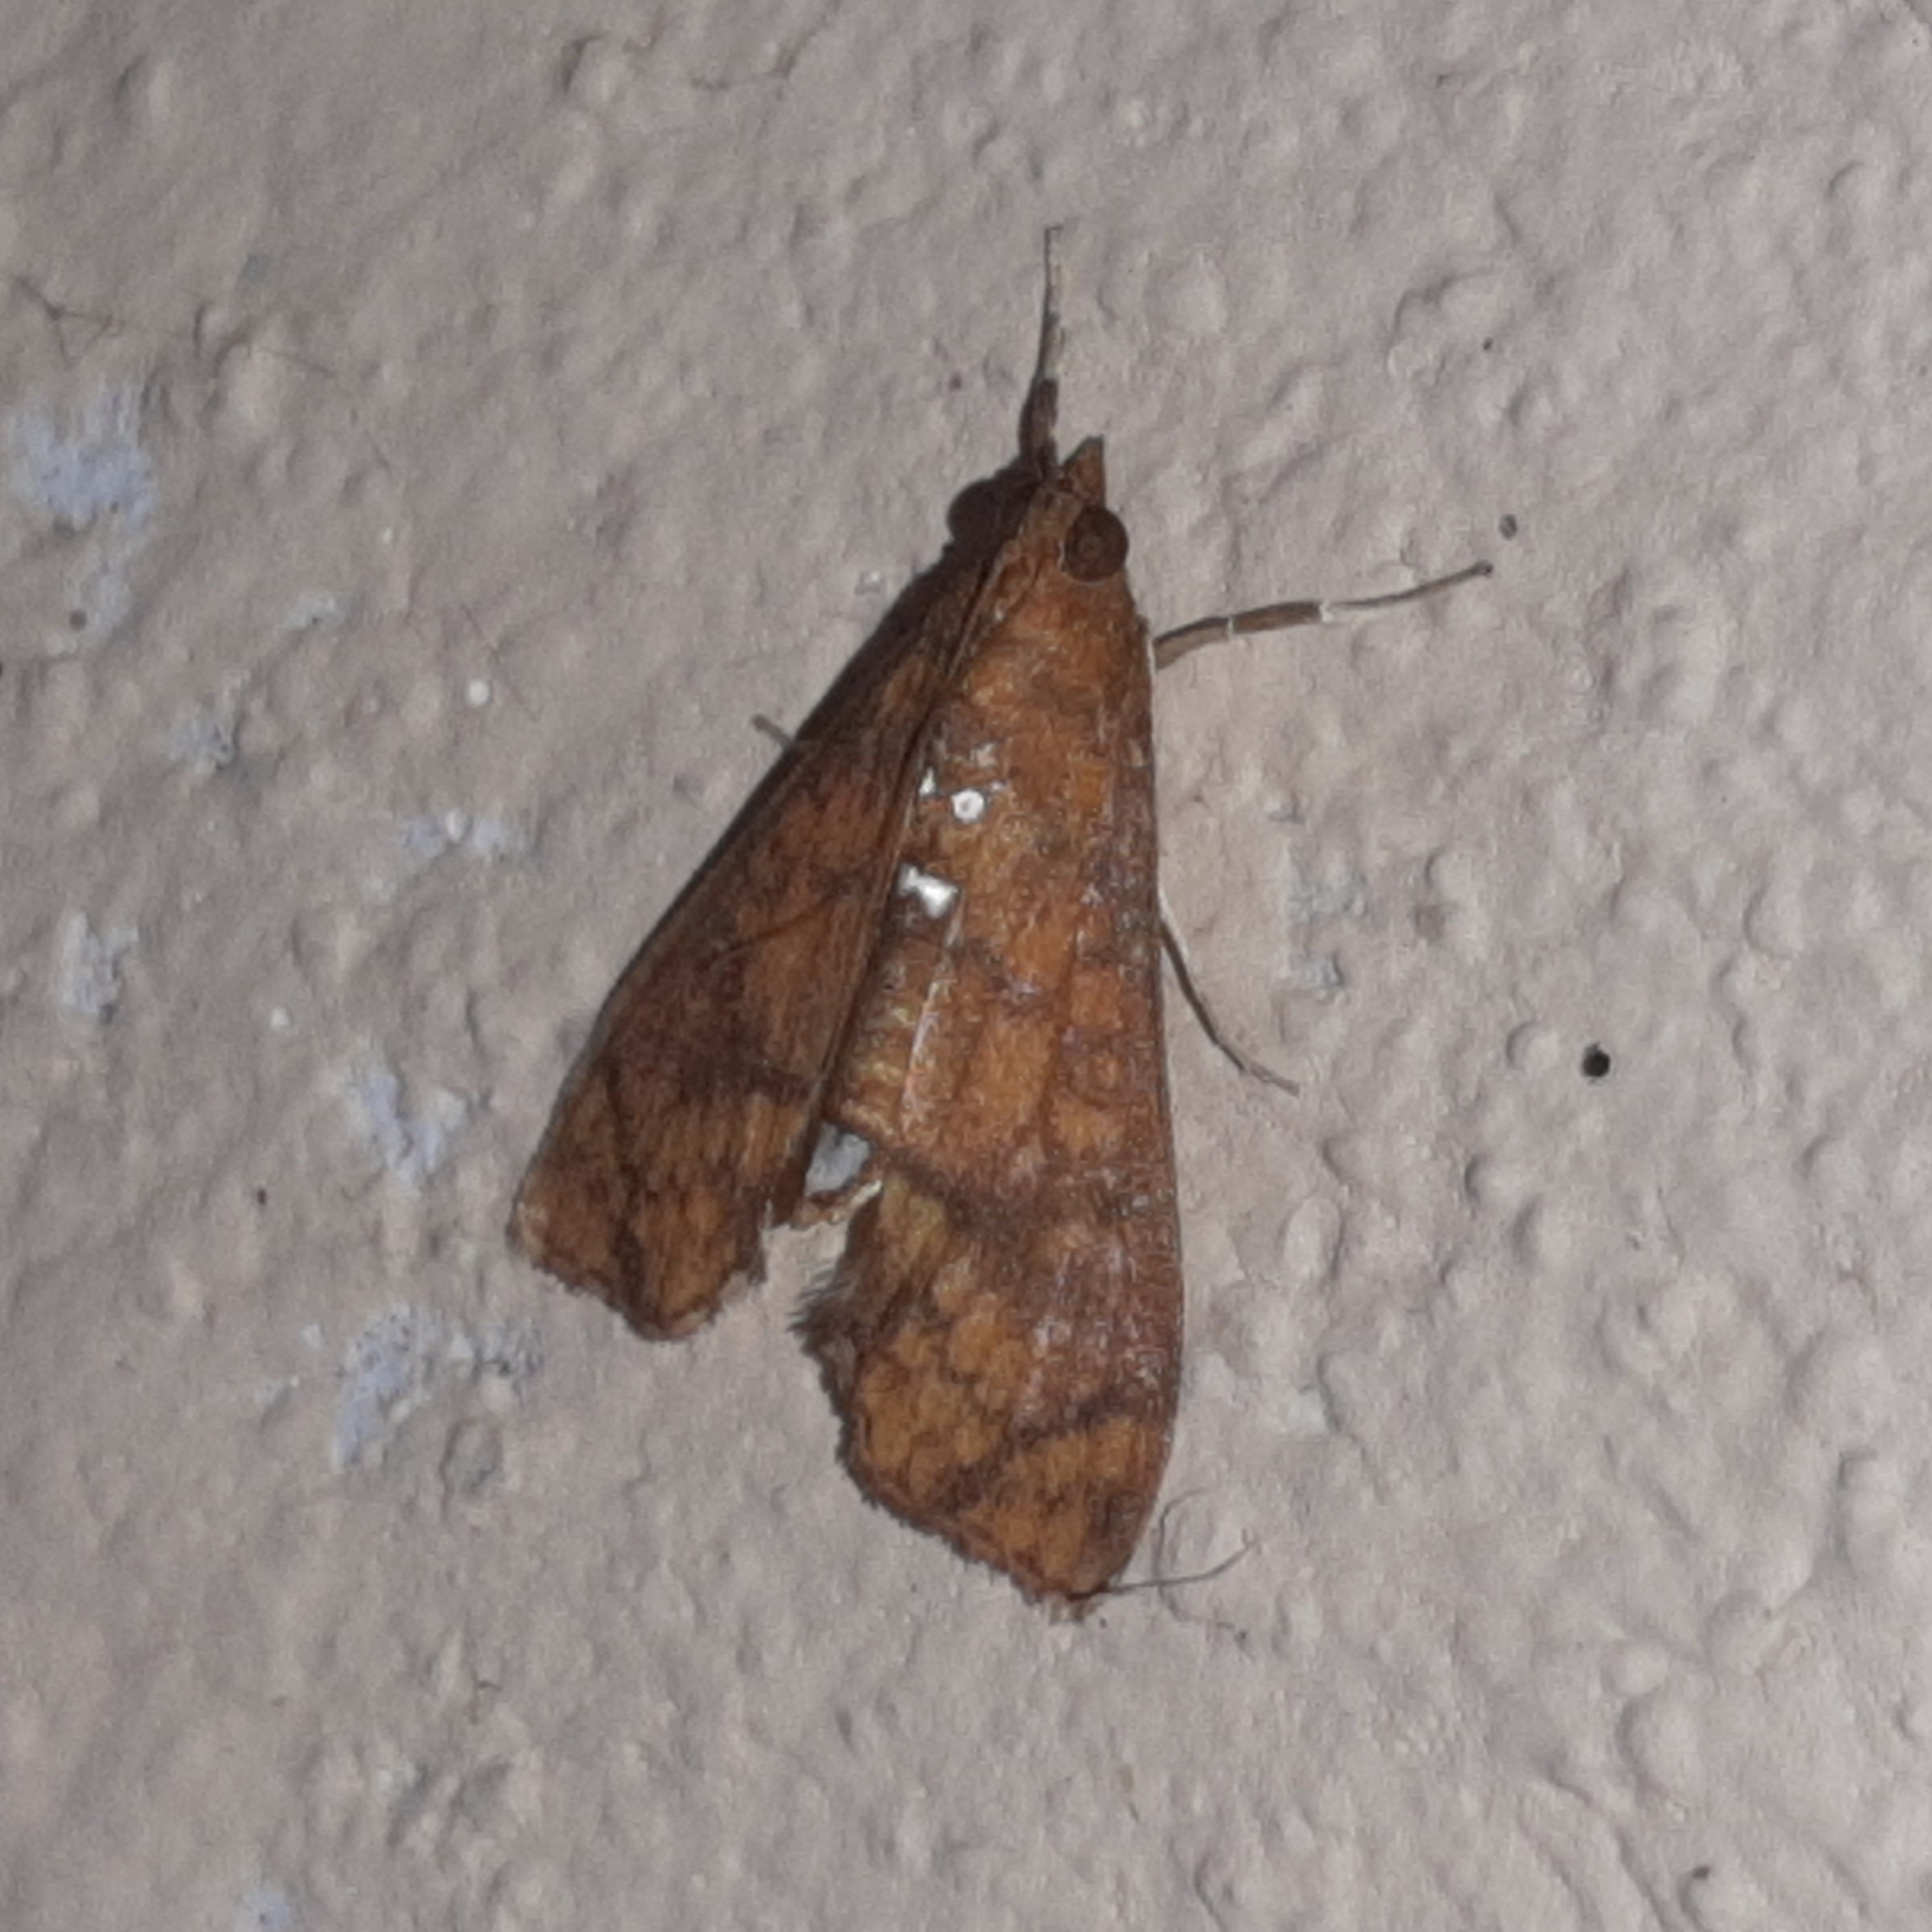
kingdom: Animalia
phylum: Arthropoda
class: Insecta
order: Lepidoptera
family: Crambidae
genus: Liopasia
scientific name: Liopasia ochracealis
